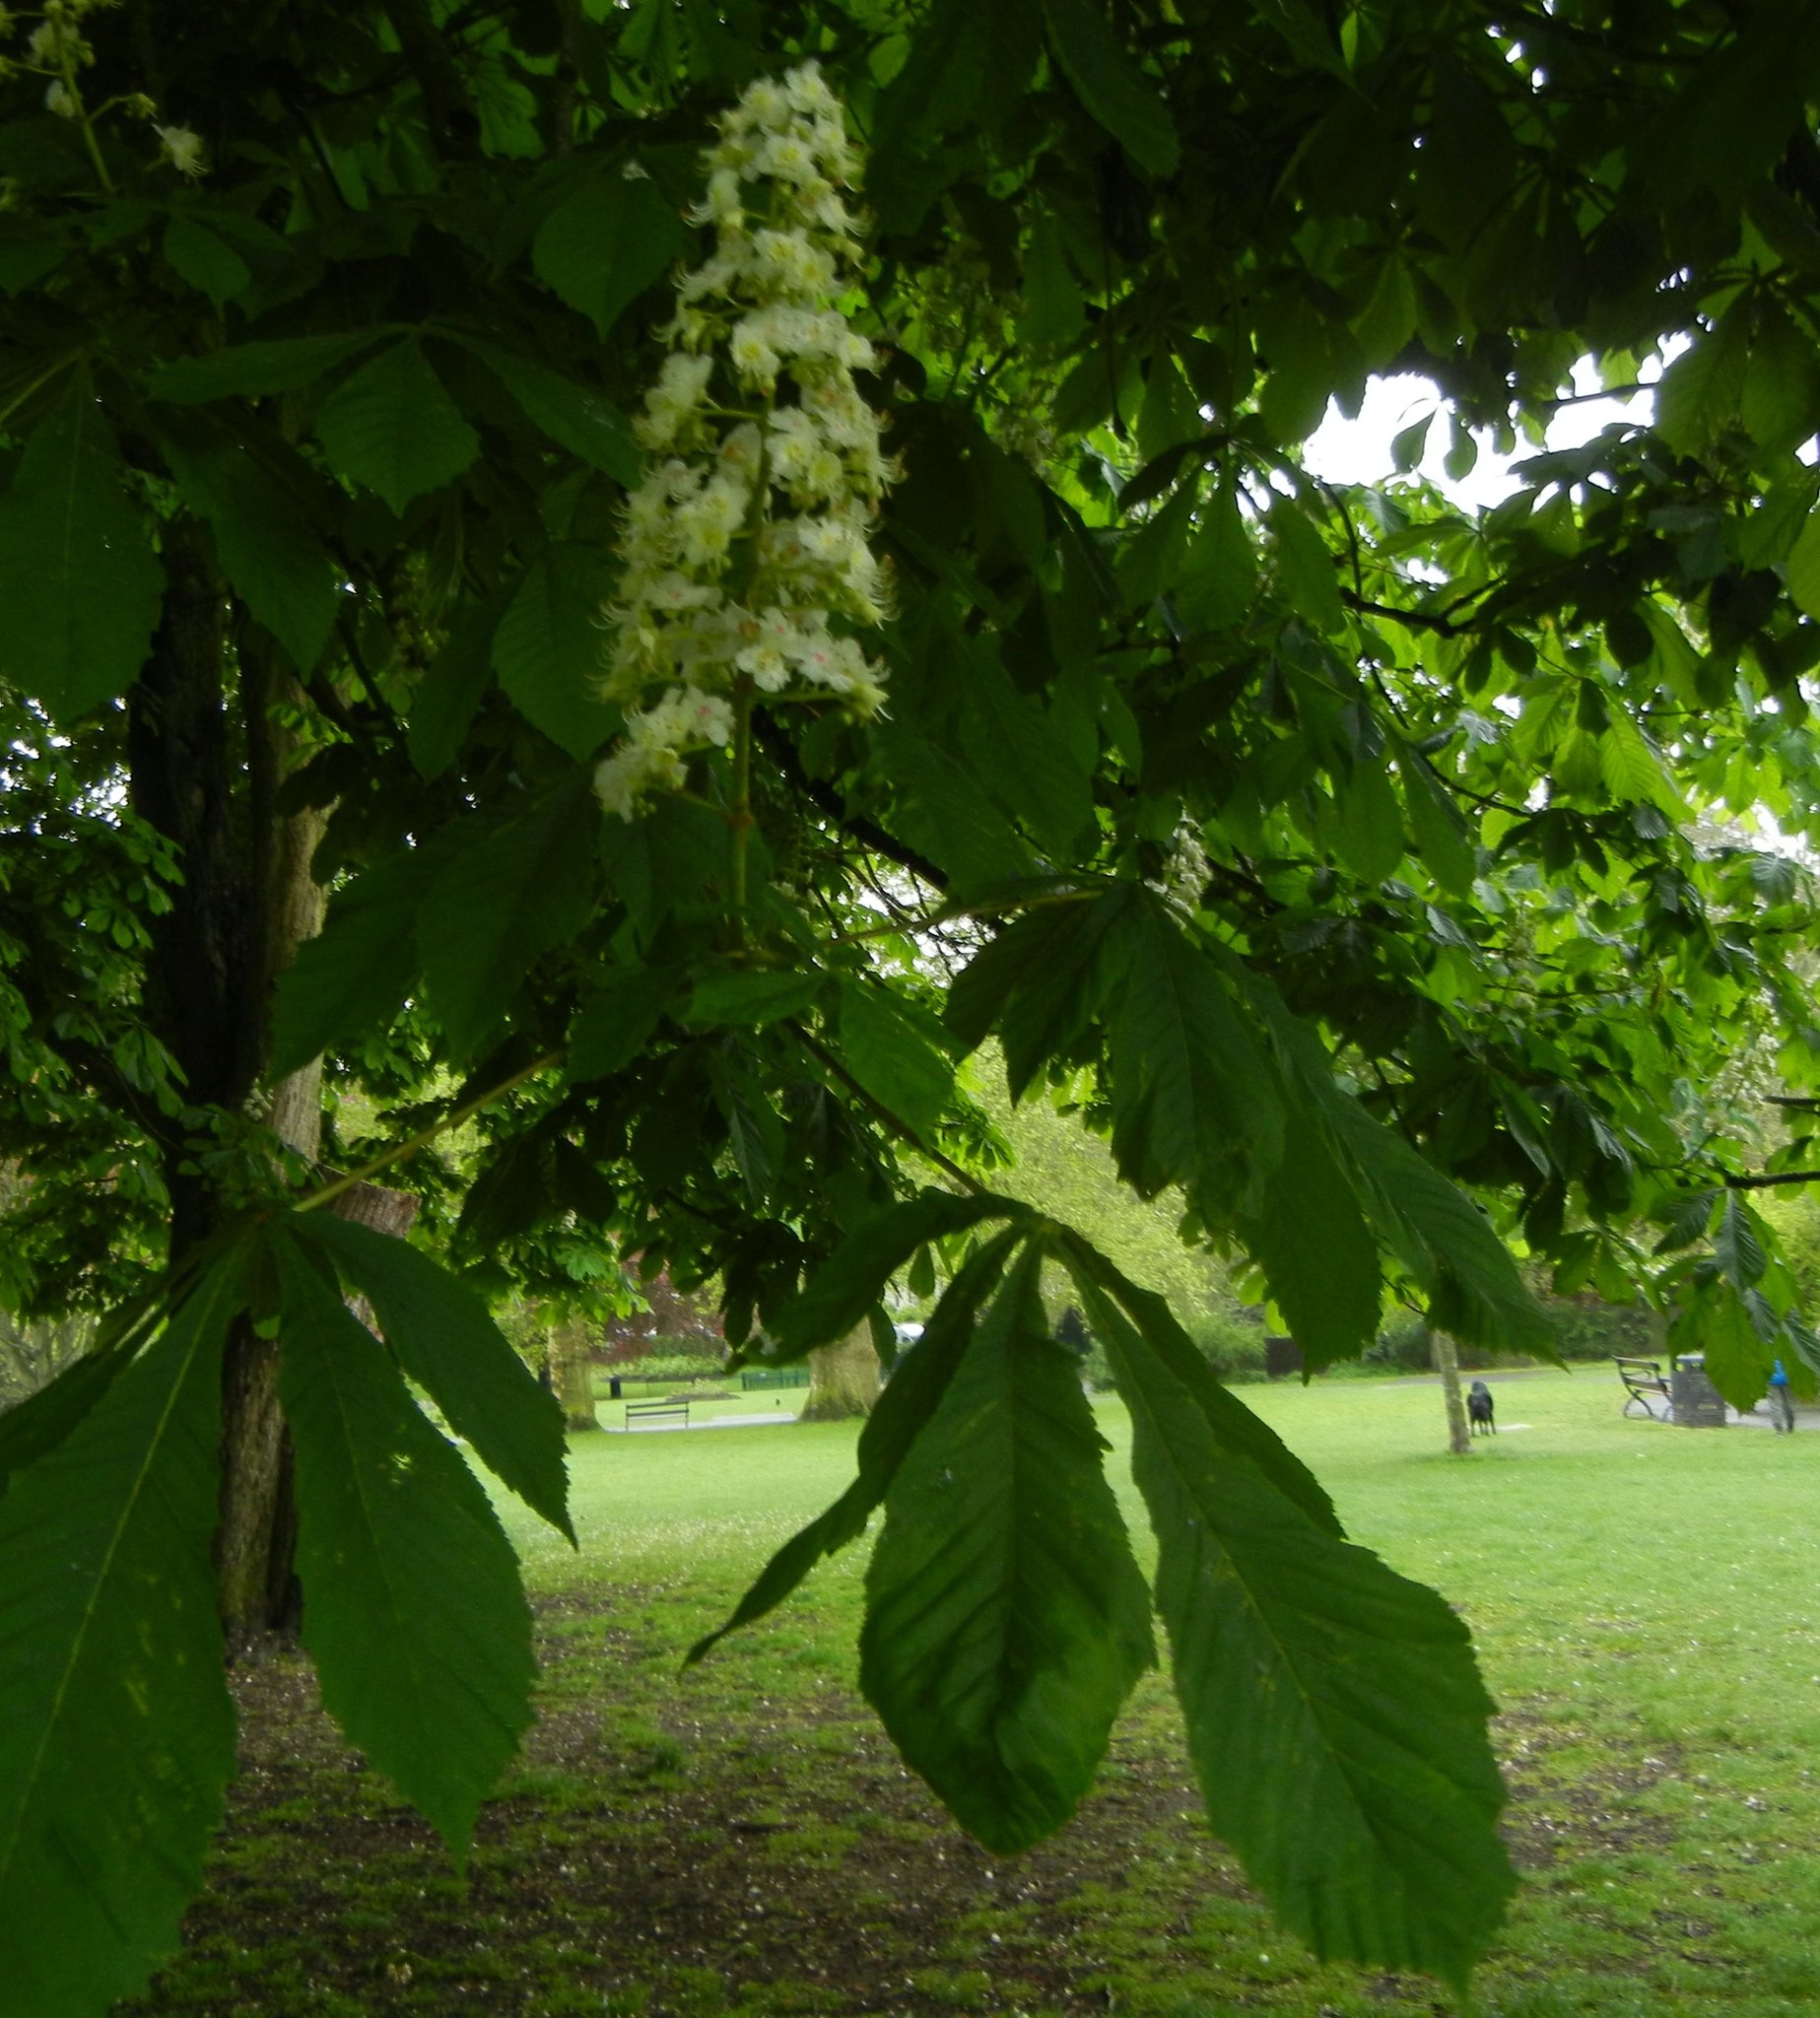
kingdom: Plantae
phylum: Tracheophyta
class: Magnoliopsida
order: Sapindales
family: Sapindaceae
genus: Aesculus
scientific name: Aesculus hippocastanum
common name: Horse-chestnut
